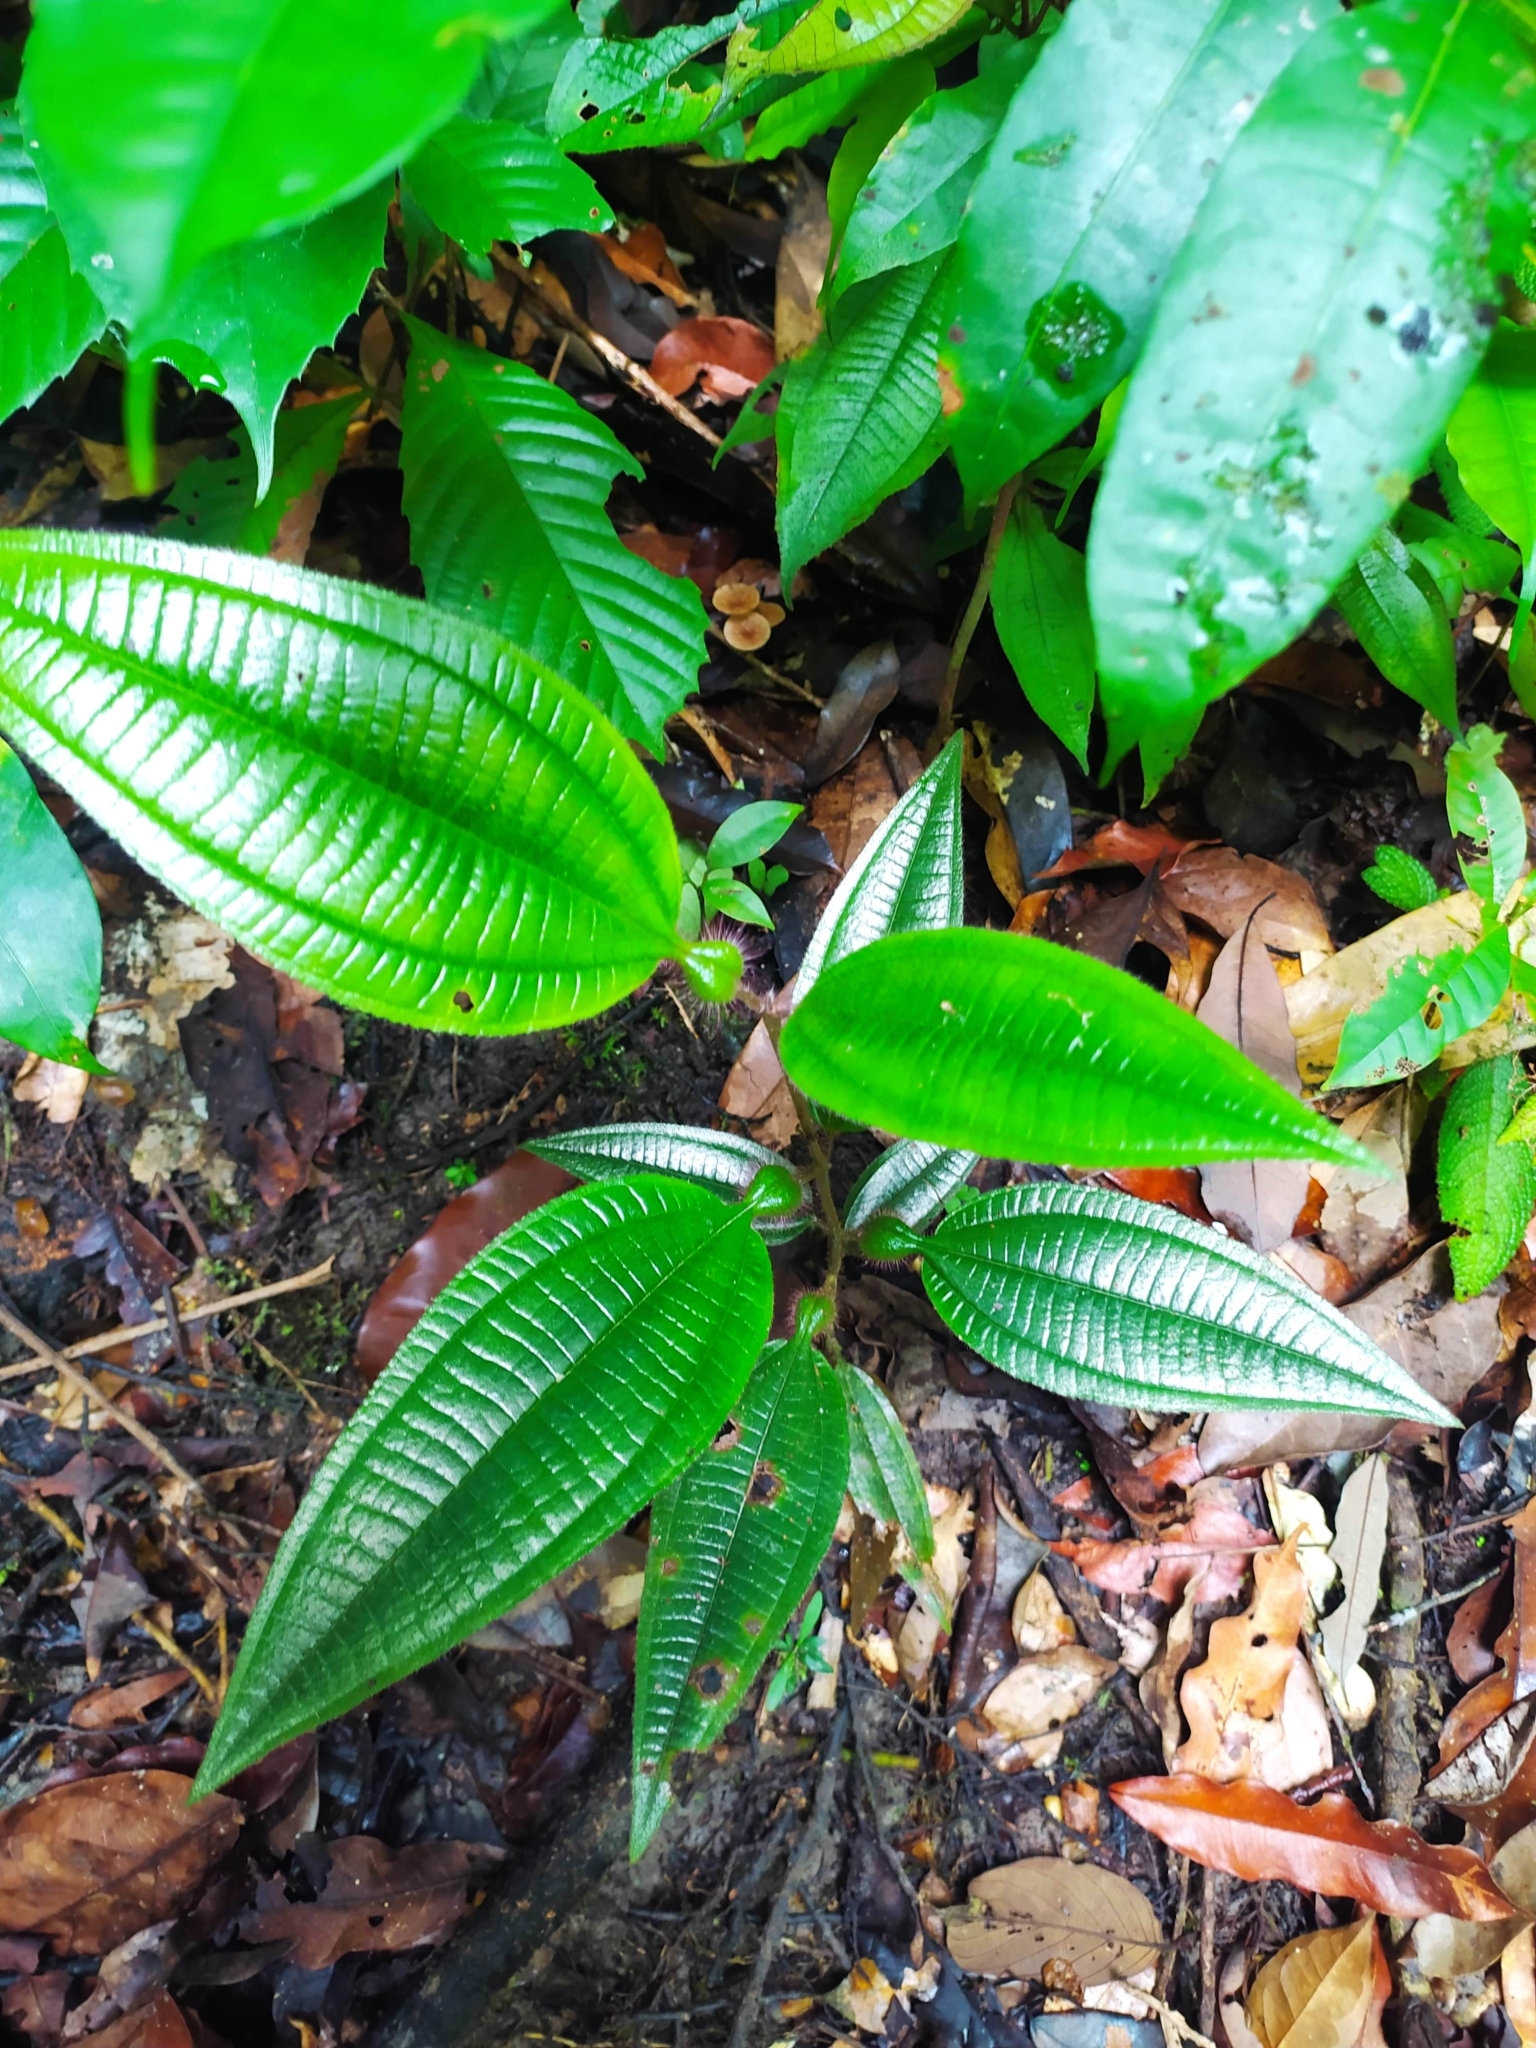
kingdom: Plantae
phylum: Tracheophyta
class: Magnoliopsida
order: Myrtales
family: Melastomataceae
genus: Miconia
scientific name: Miconia tococa
